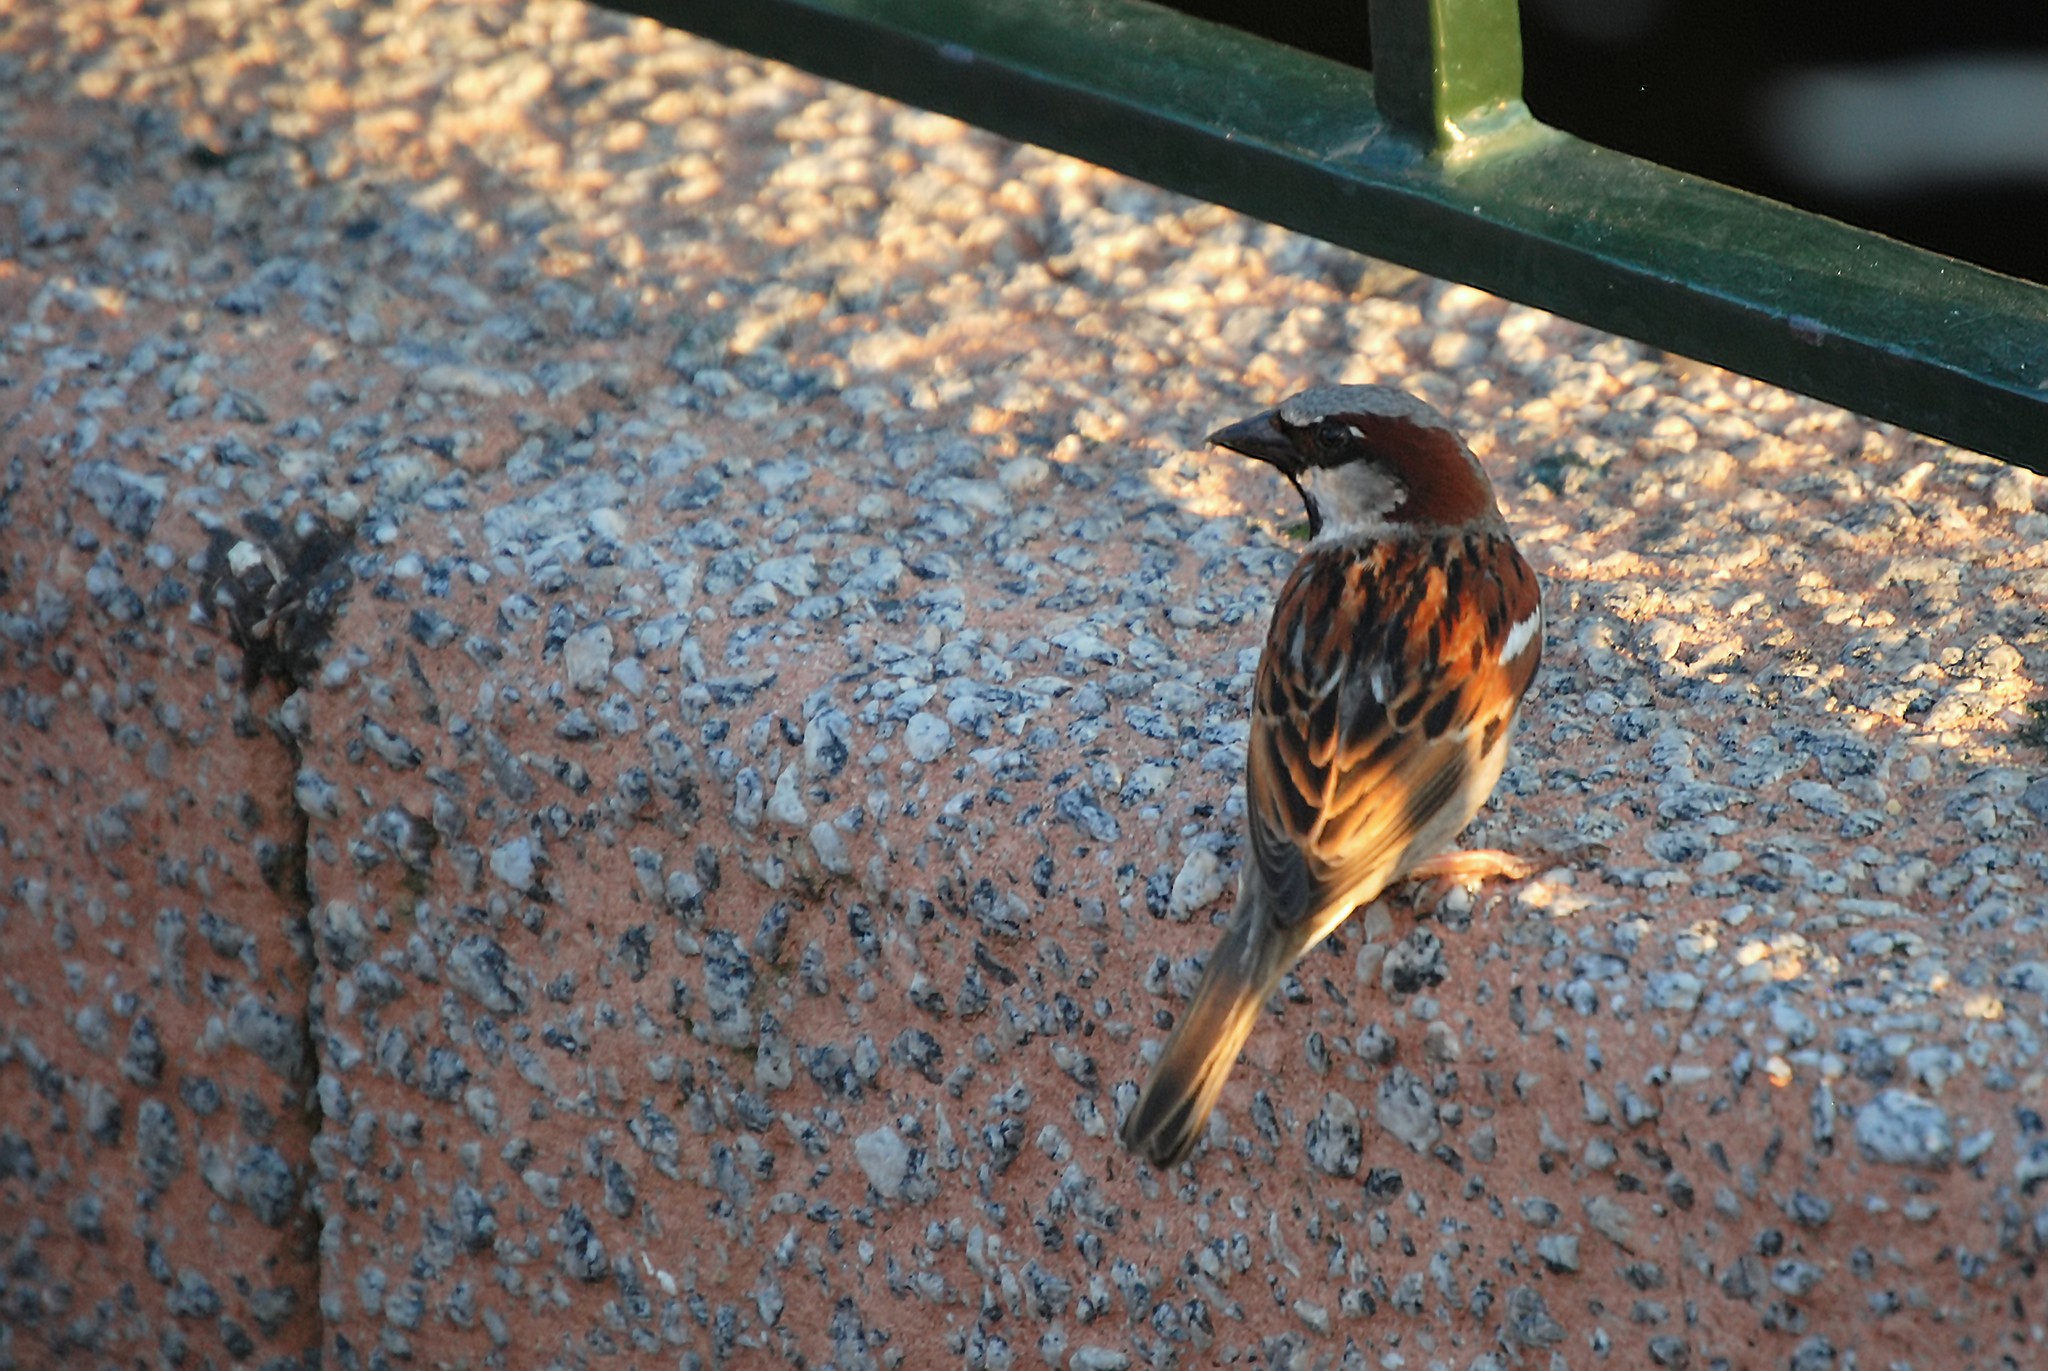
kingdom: Animalia
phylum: Chordata
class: Aves
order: Passeriformes
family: Passeridae
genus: Passer
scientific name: Passer domesticus
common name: House sparrow
